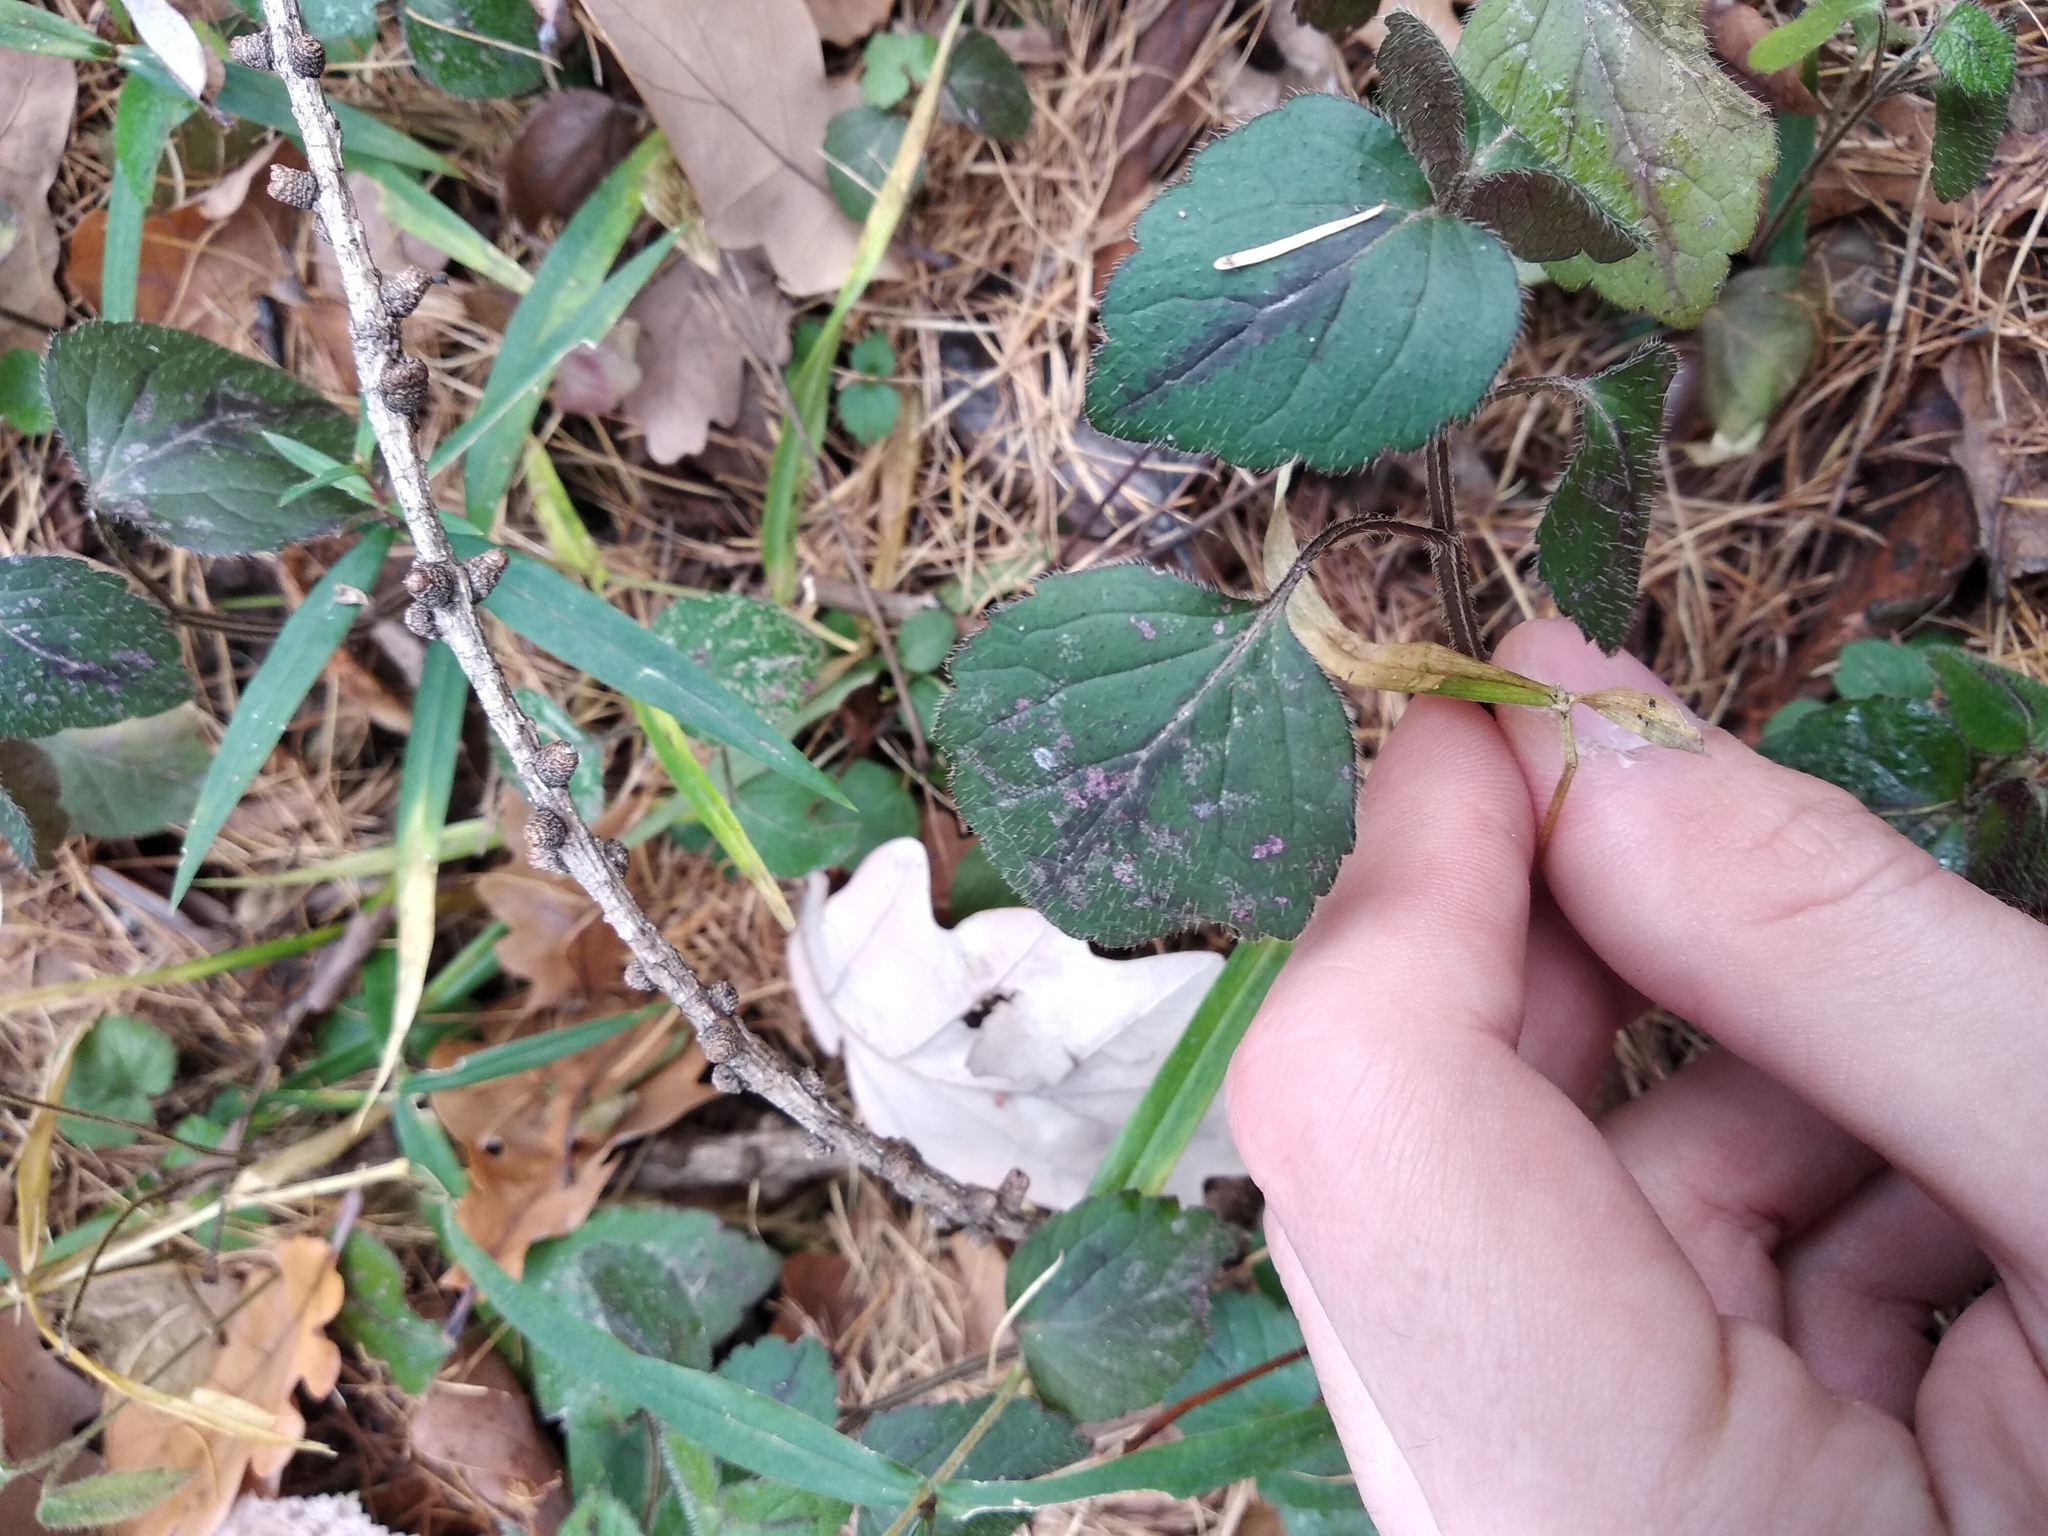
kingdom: Plantae
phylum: Tracheophyta
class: Magnoliopsida
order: Lamiales
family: Lamiaceae
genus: Lamium
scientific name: Lamium galeobdolon
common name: Yellow archangel
